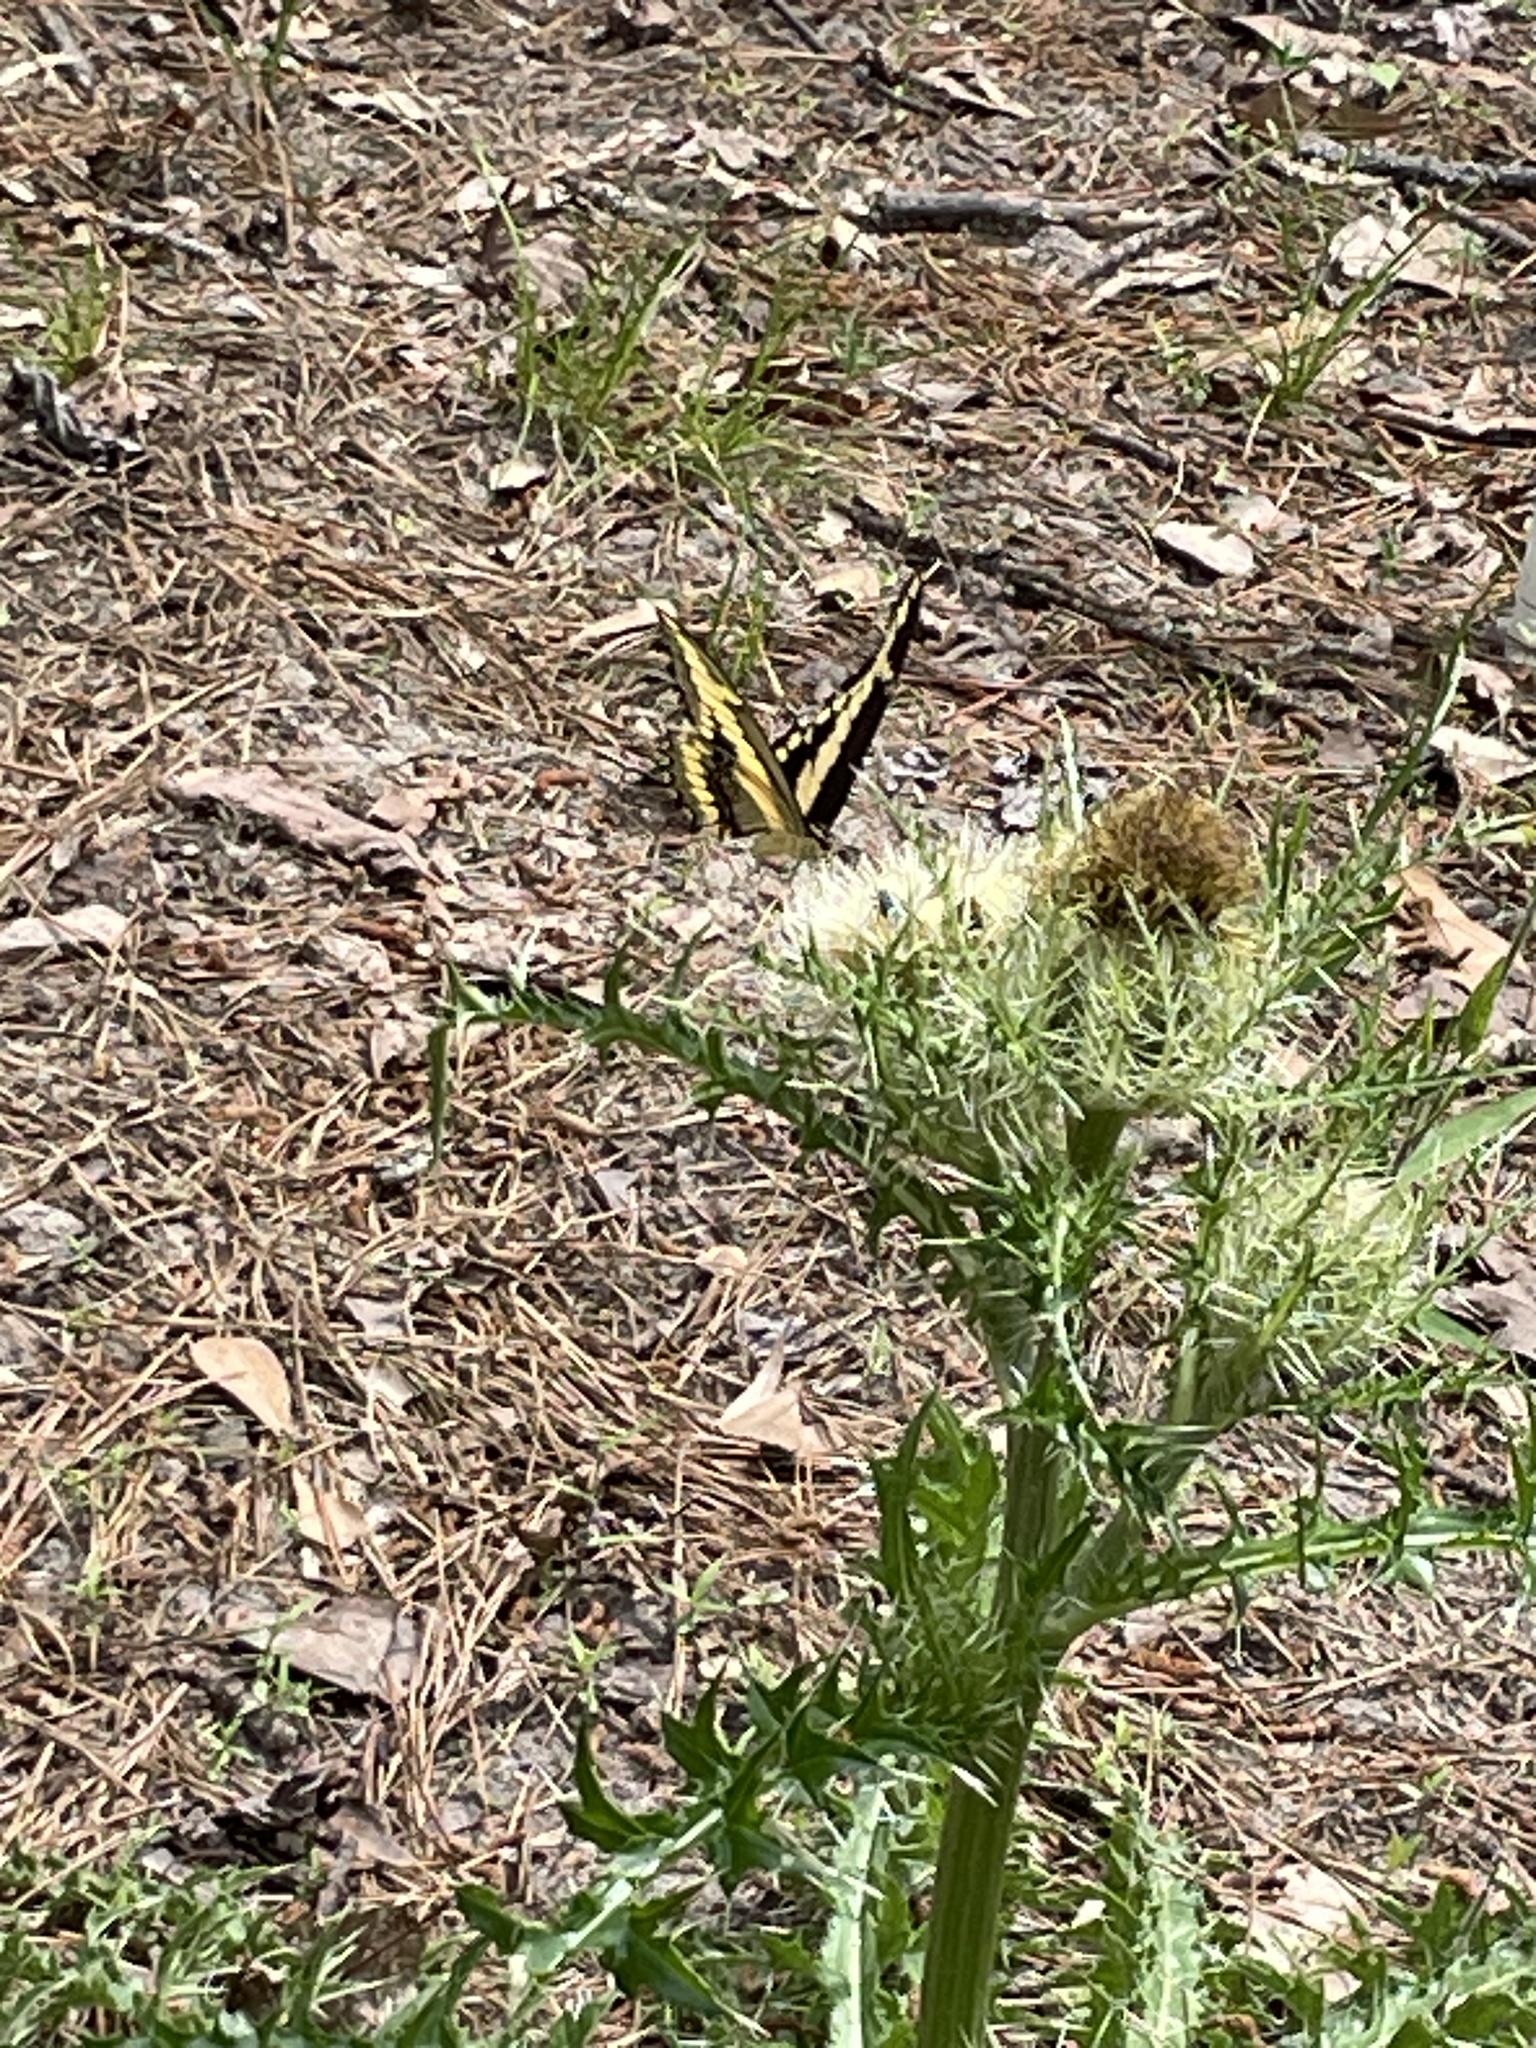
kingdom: Animalia
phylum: Arthropoda
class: Insecta
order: Lepidoptera
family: Papilionidae
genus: Papilio
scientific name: Papilio cresphontes
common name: Giant swallowtail
